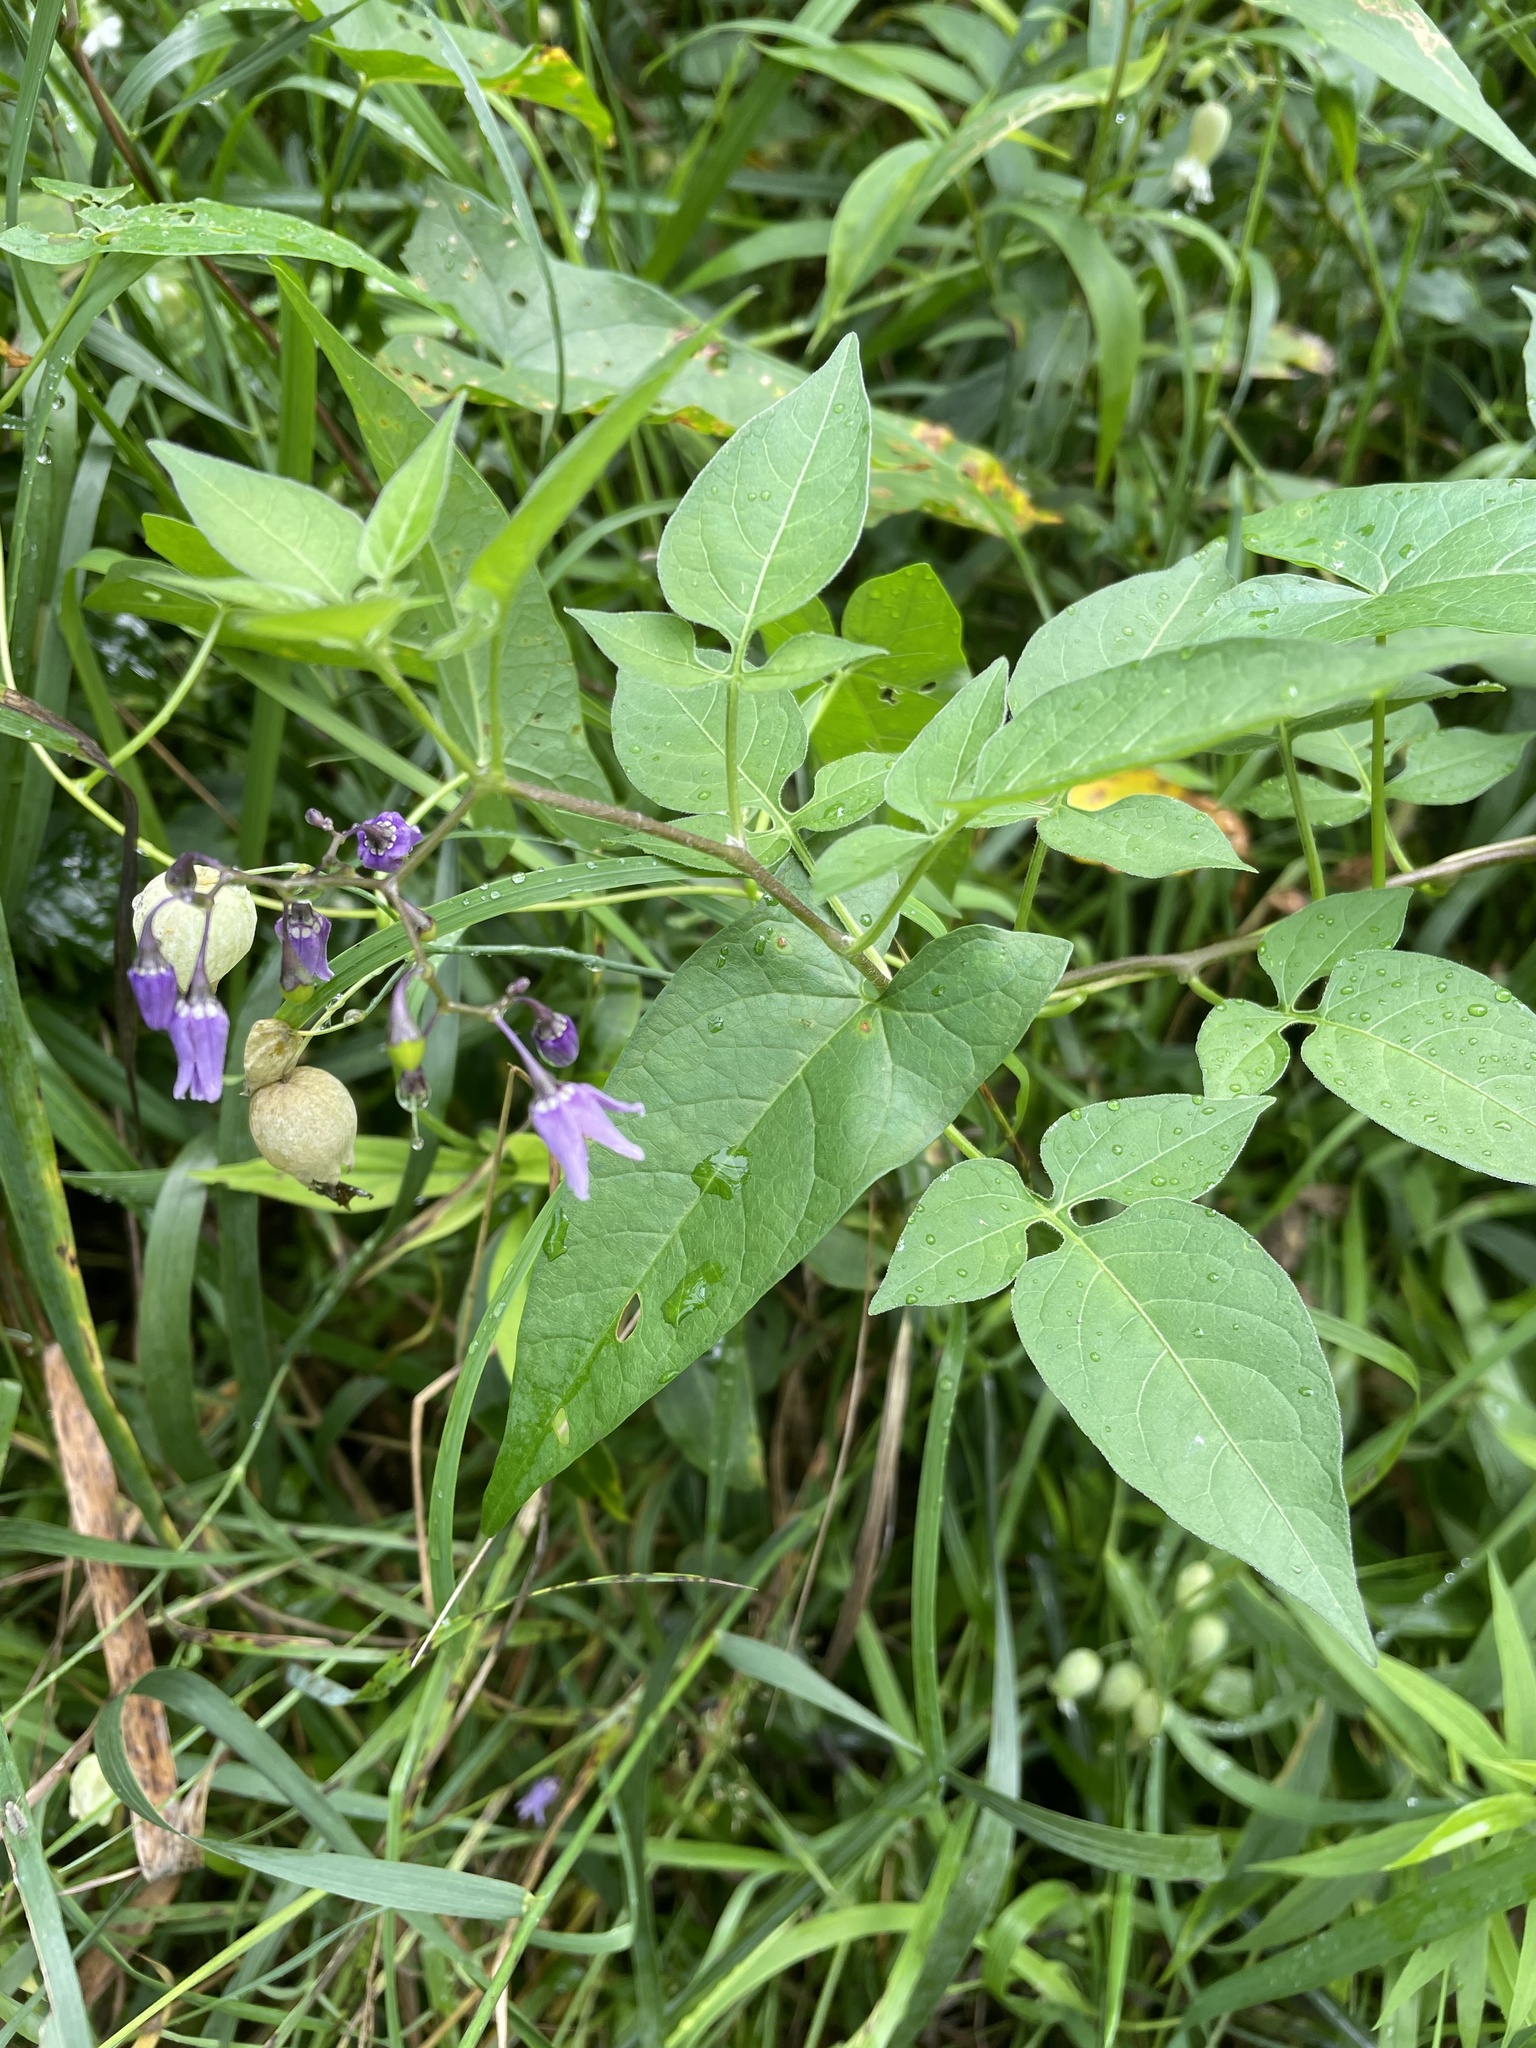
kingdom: Plantae
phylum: Tracheophyta
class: Magnoliopsida
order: Solanales
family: Solanaceae
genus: Solanum
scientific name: Solanum dulcamara
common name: Climbing nightshade
